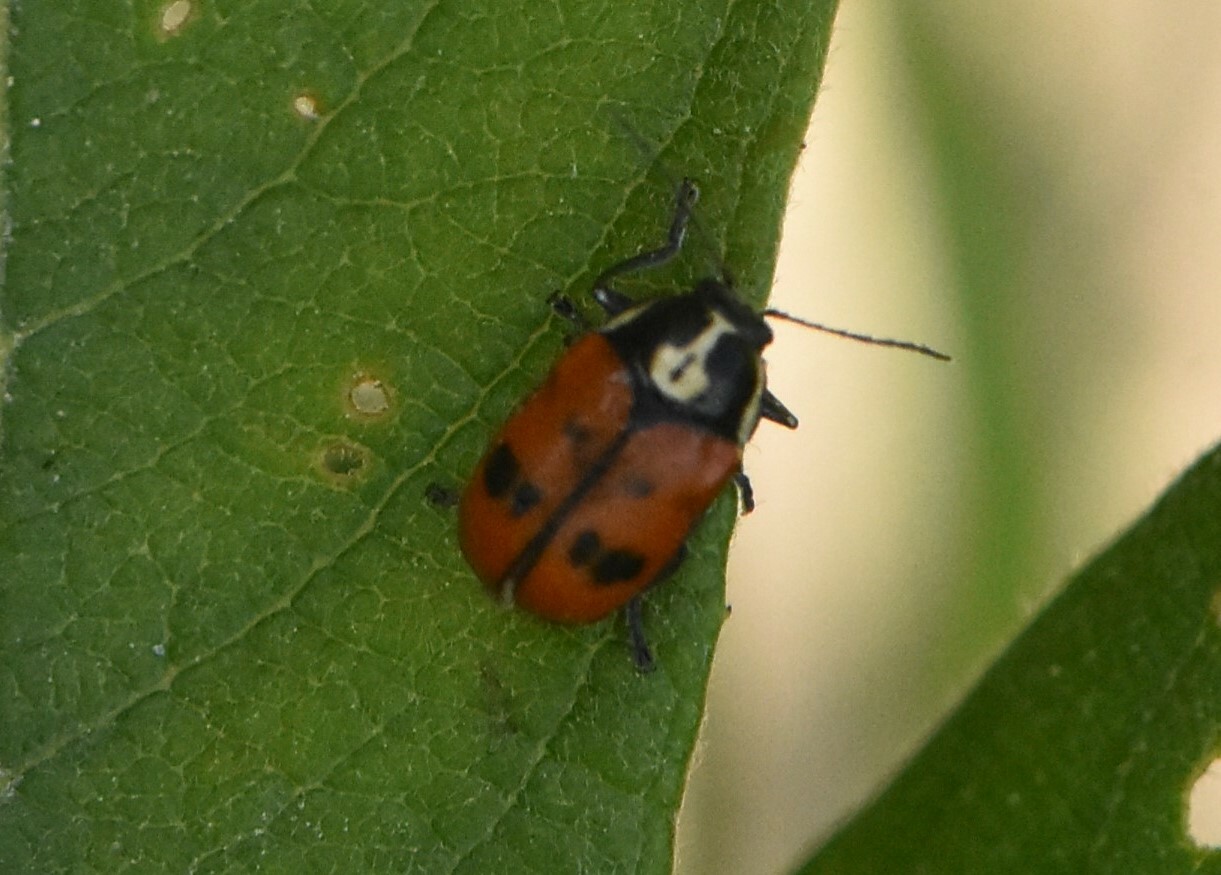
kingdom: Animalia
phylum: Arthropoda
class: Insecta
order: Coleoptera
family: Chrysomelidae
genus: Cryptocephalus
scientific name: Cryptocephalus octopunctatus
